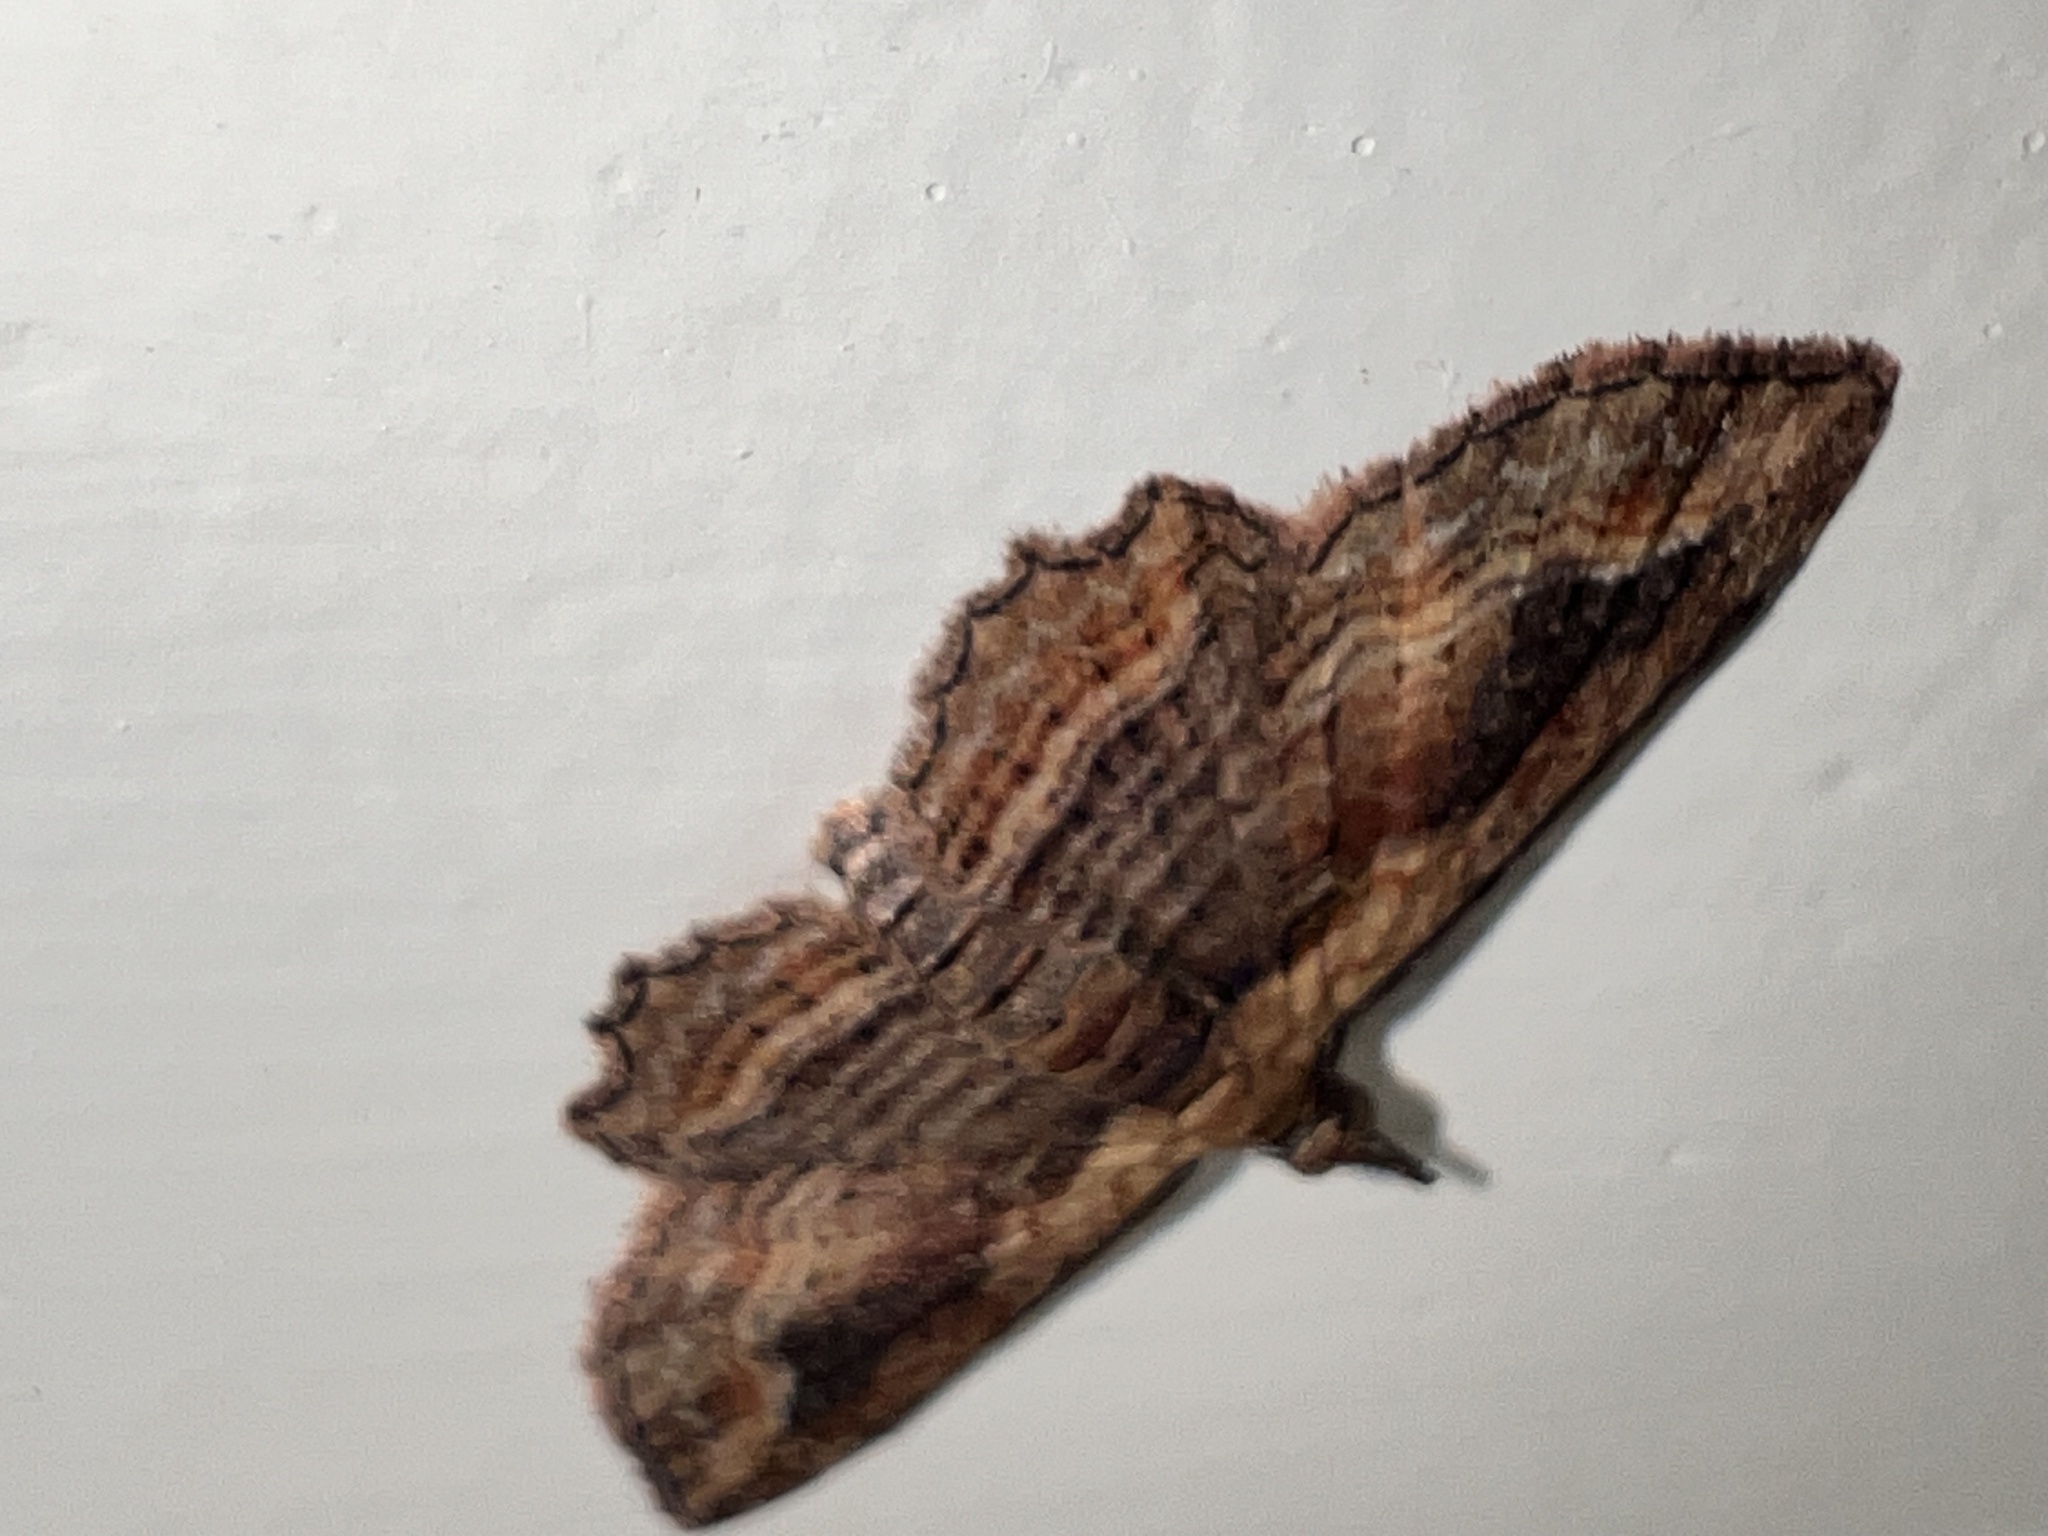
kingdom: Animalia
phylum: Arthropoda
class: Insecta
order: Lepidoptera
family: Geometridae
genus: Chloroclystis
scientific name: Chloroclystis filata
